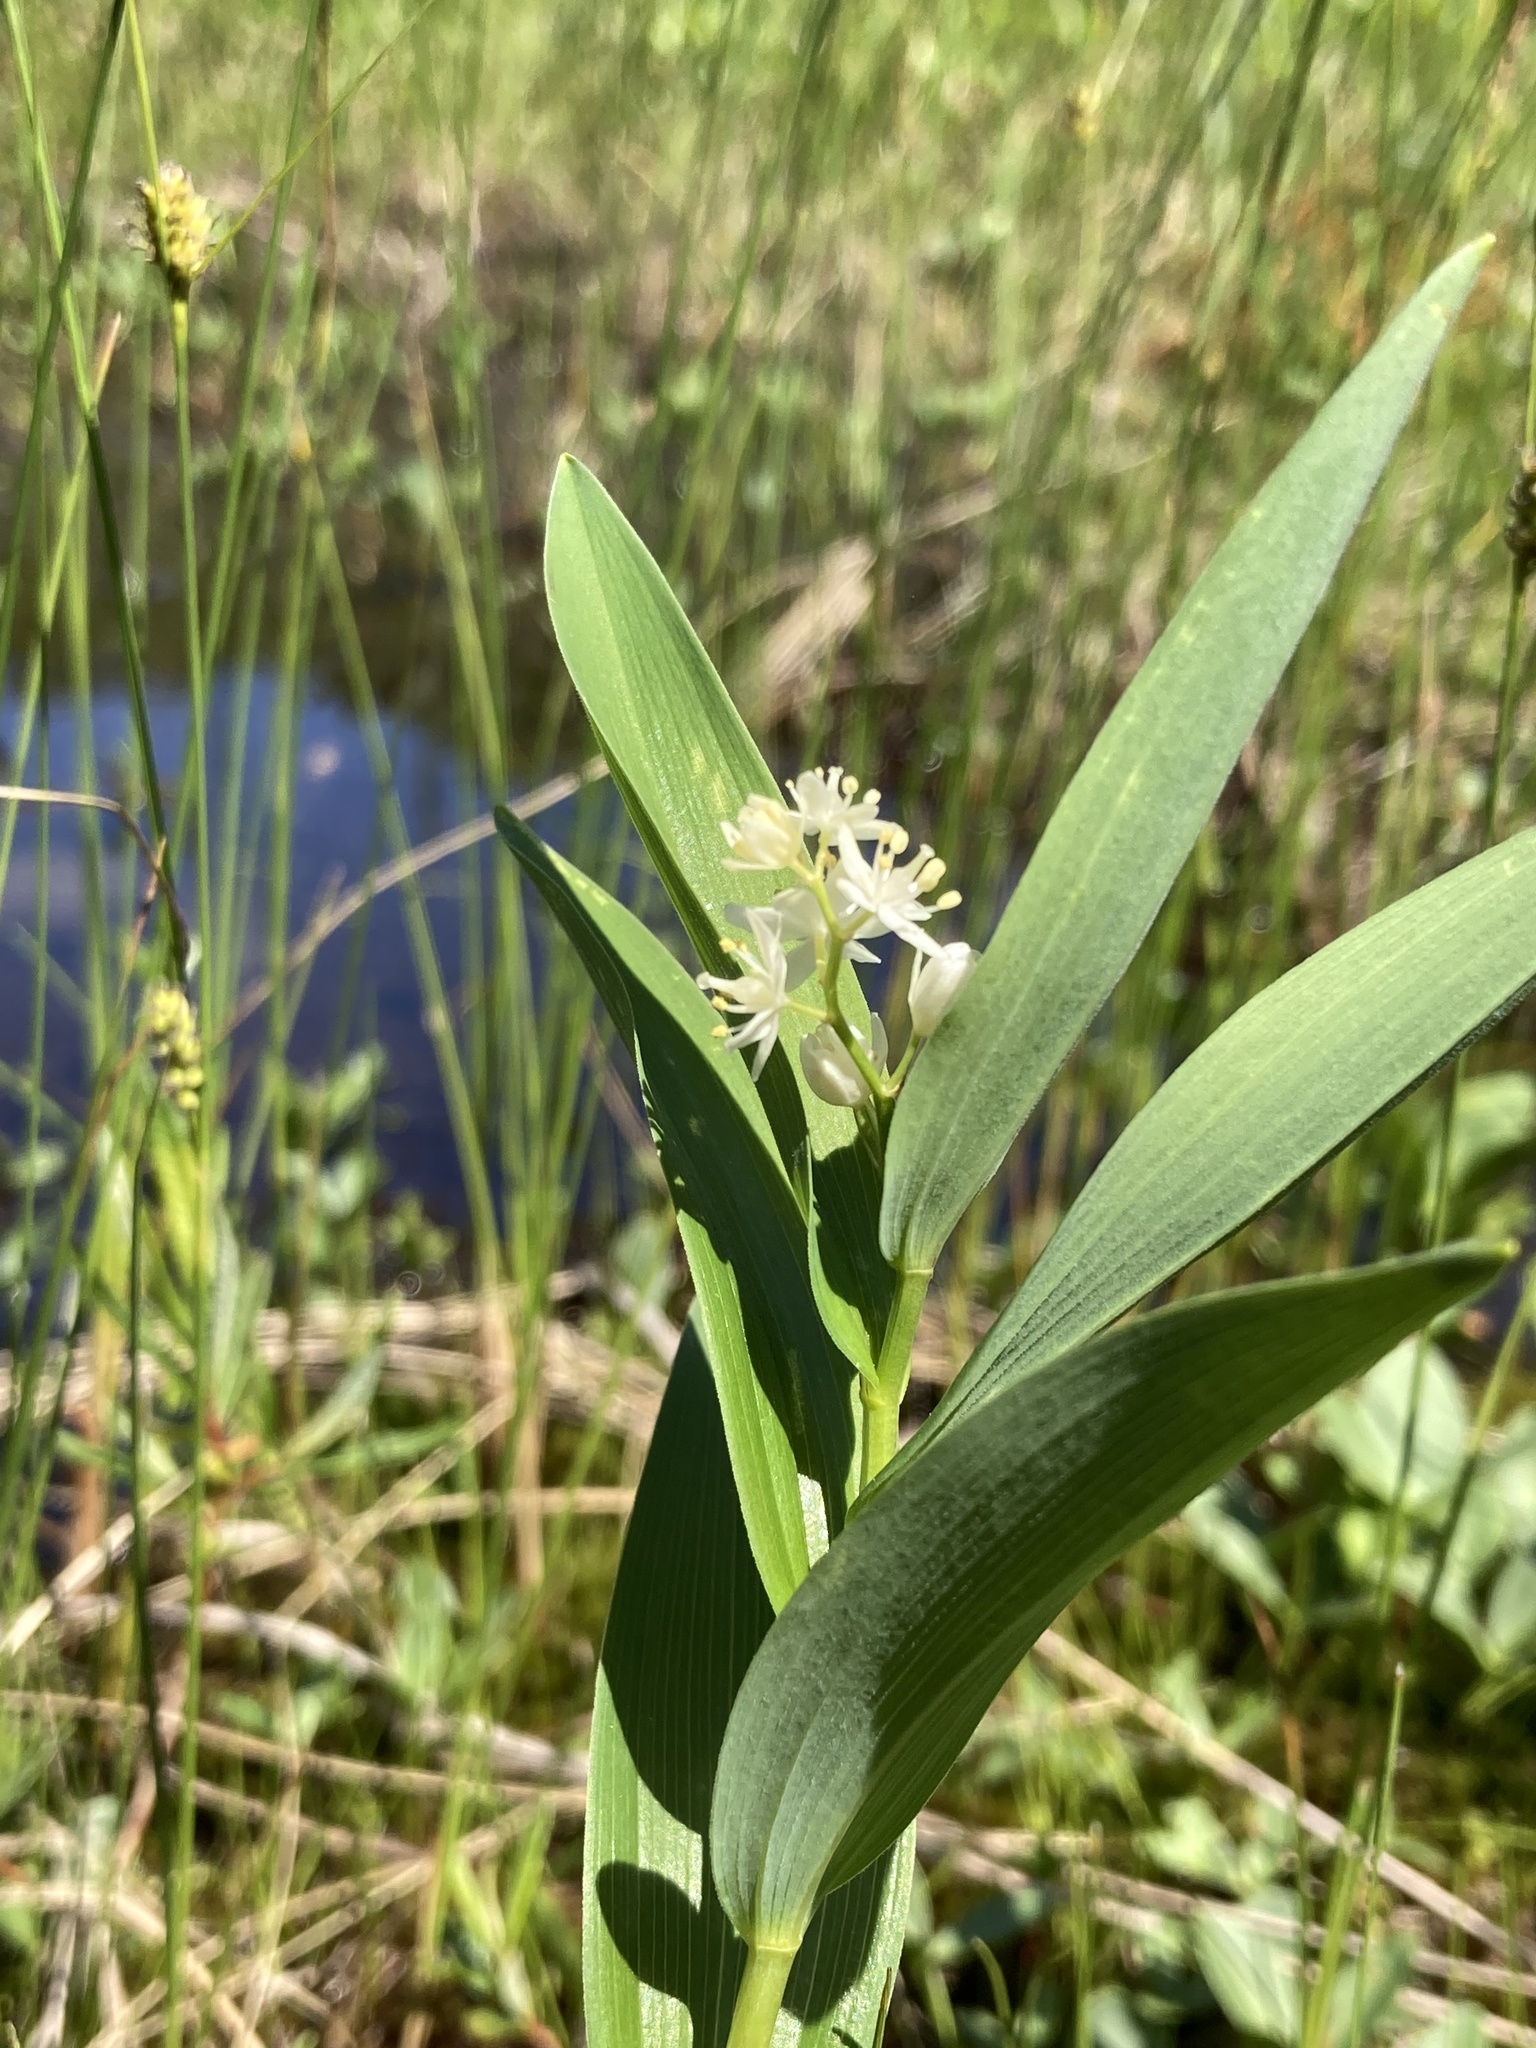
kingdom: Plantae
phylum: Tracheophyta
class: Liliopsida
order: Asparagales
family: Asparagaceae
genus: Maianthemum
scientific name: Maianthemum stellatum
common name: Little false solomon's seal
